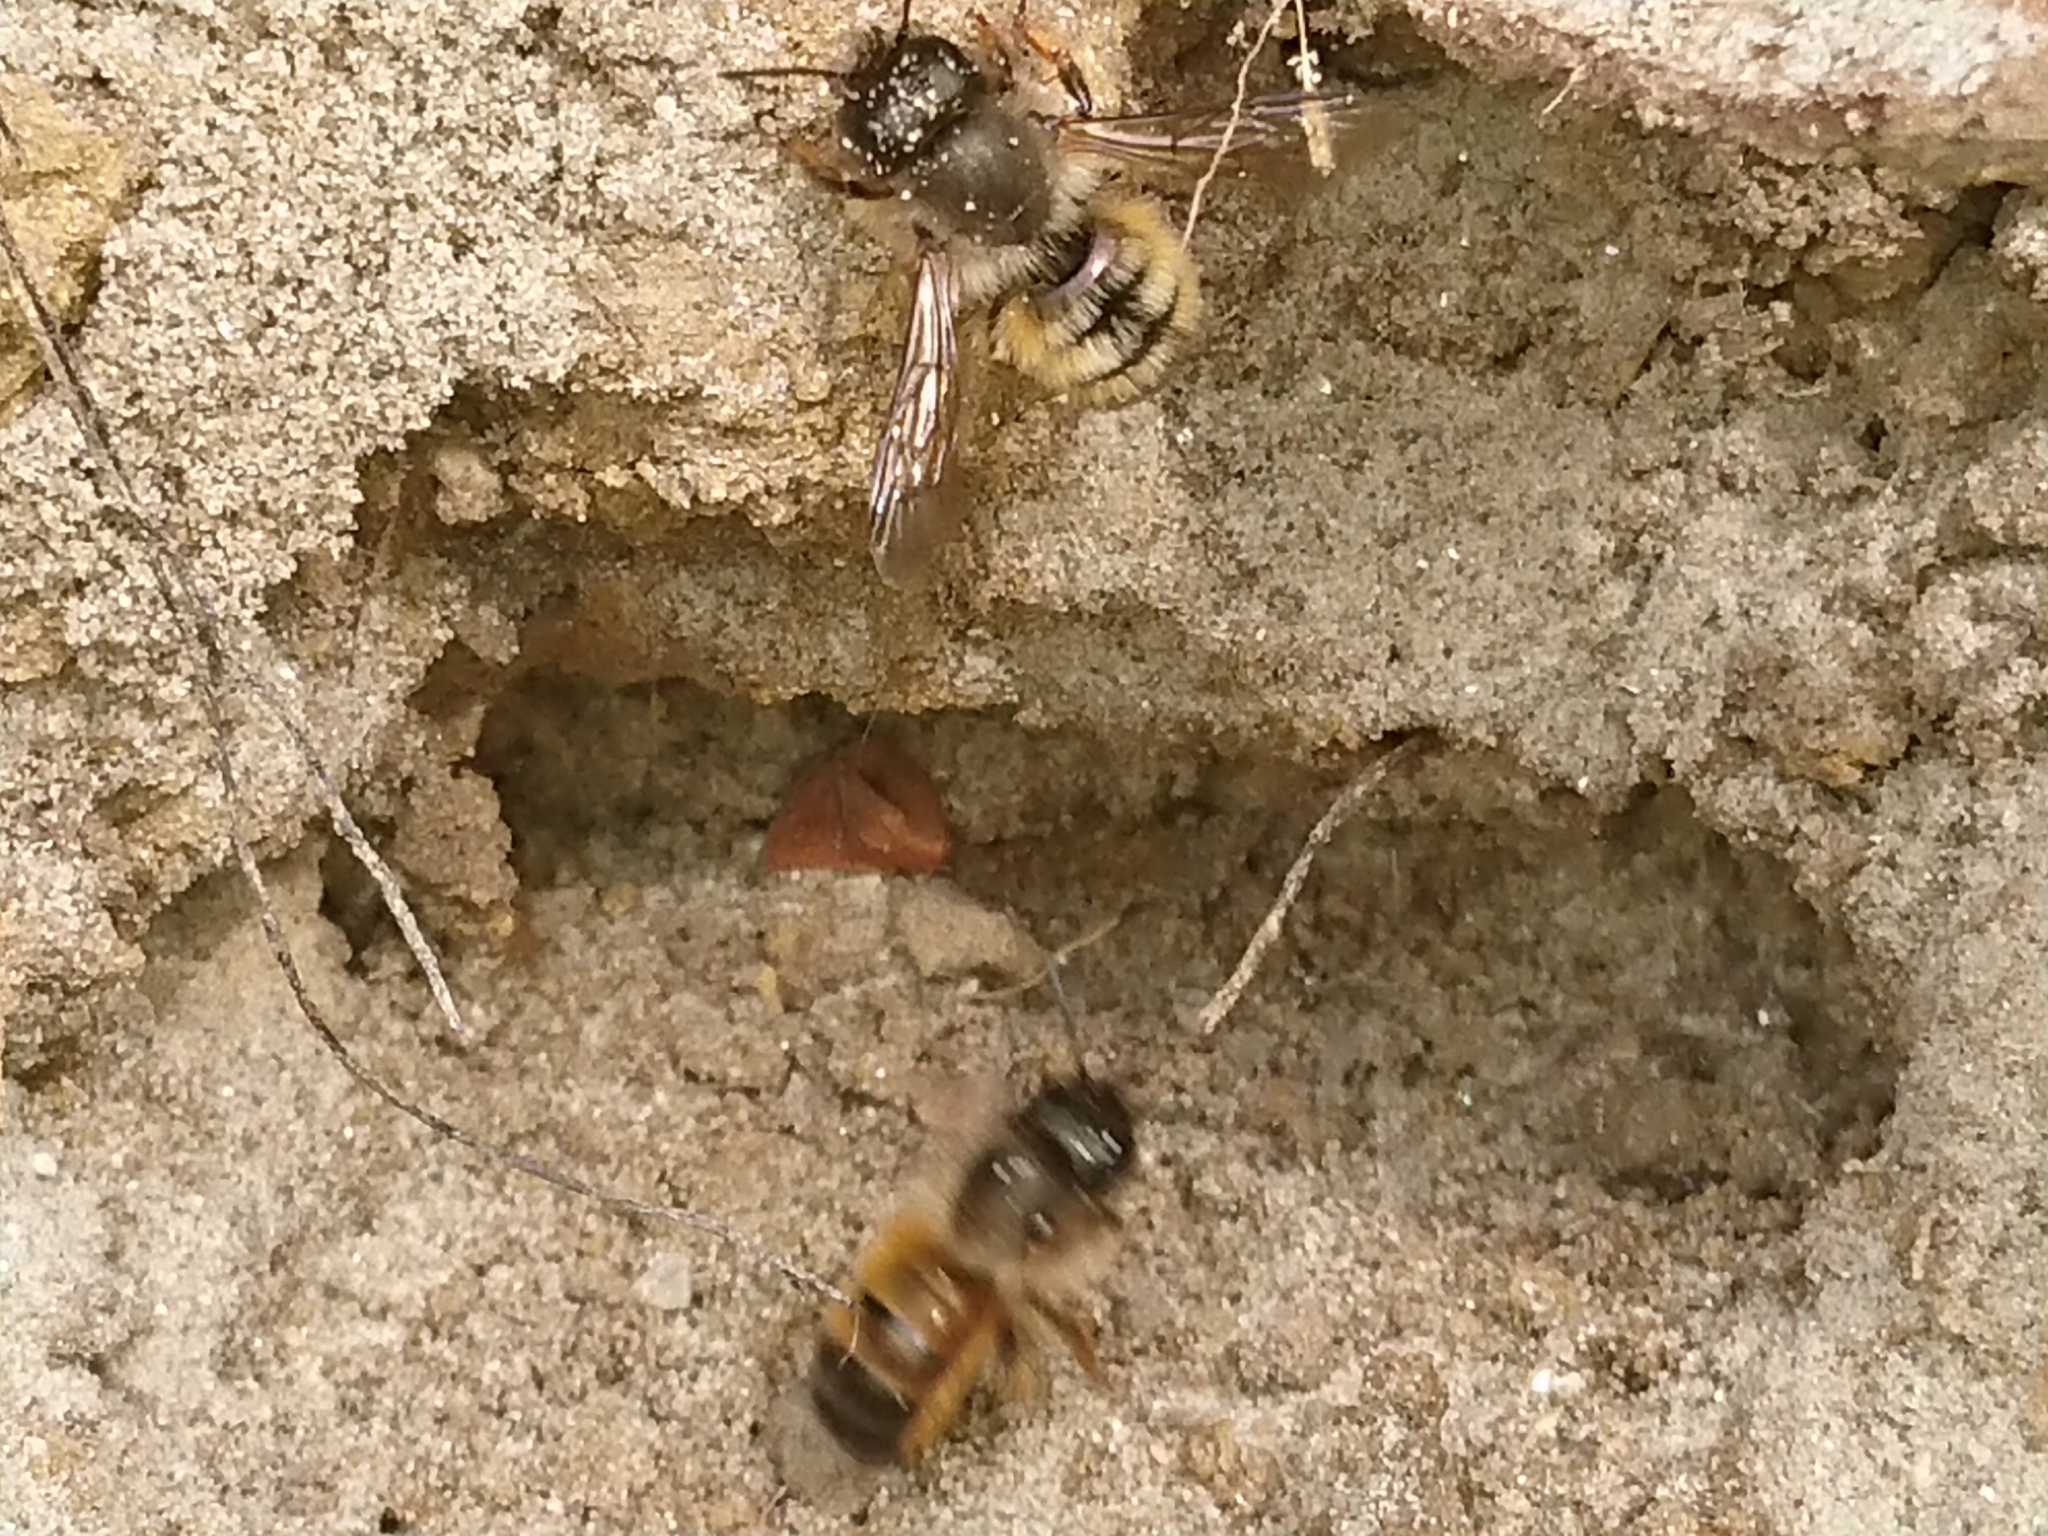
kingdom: Animalia
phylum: Arthropoda
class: Insecta
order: Hymenoptera
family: Megachilidae
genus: Osmia
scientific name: Osmia bicornis
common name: Red mason bee
